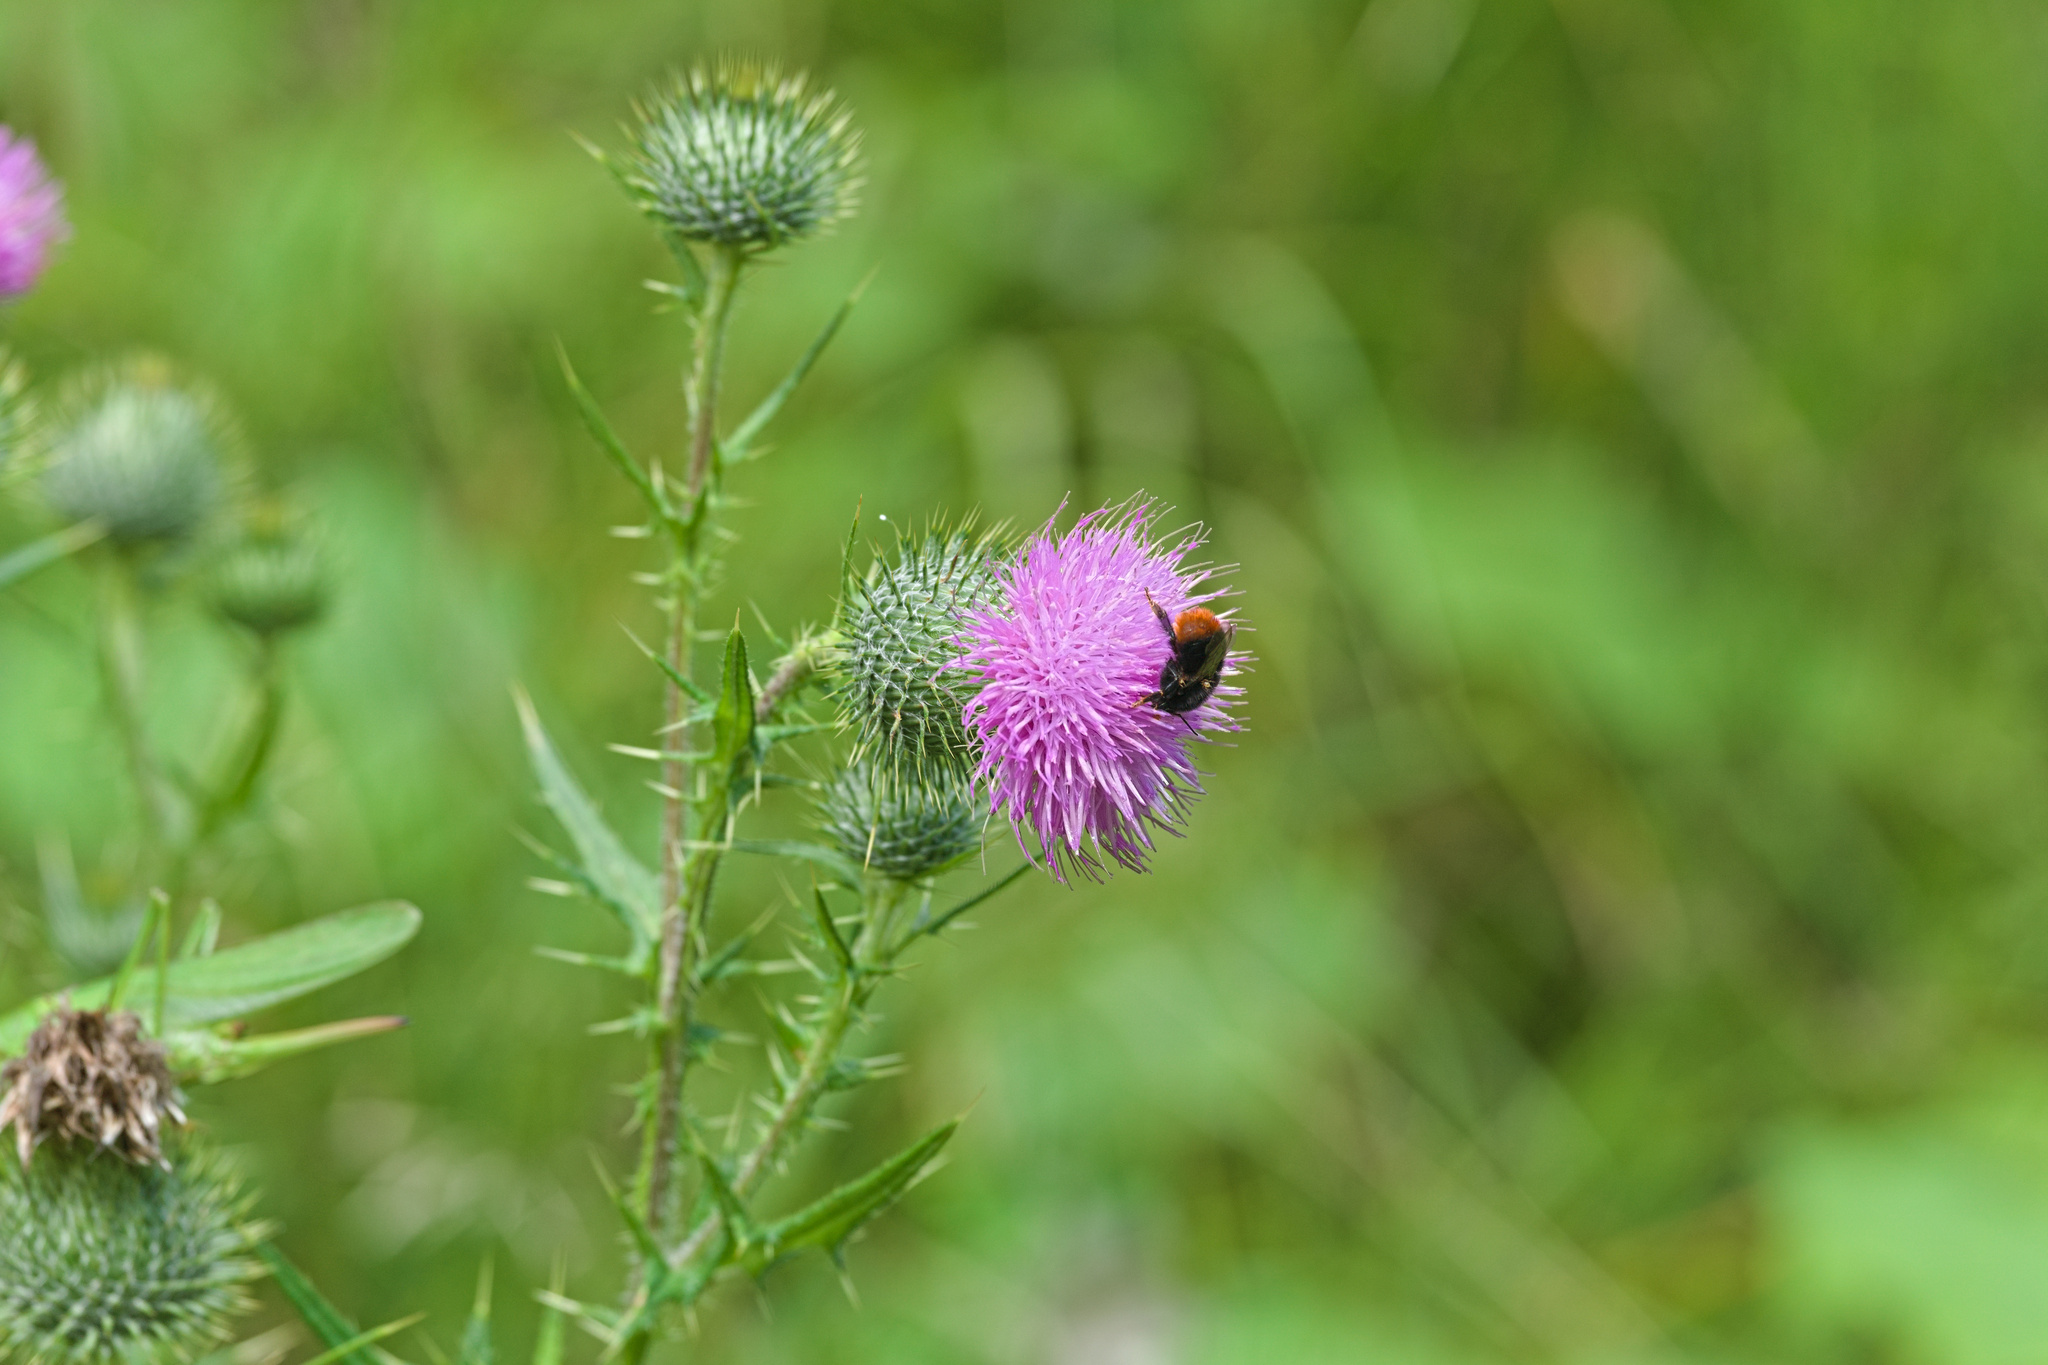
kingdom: Plantae
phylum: Tracheophyta
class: Magnoliopsida
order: Asterales
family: Asteraceae
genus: Cirsium
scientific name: Cirsium vulgare
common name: Bull thistle
